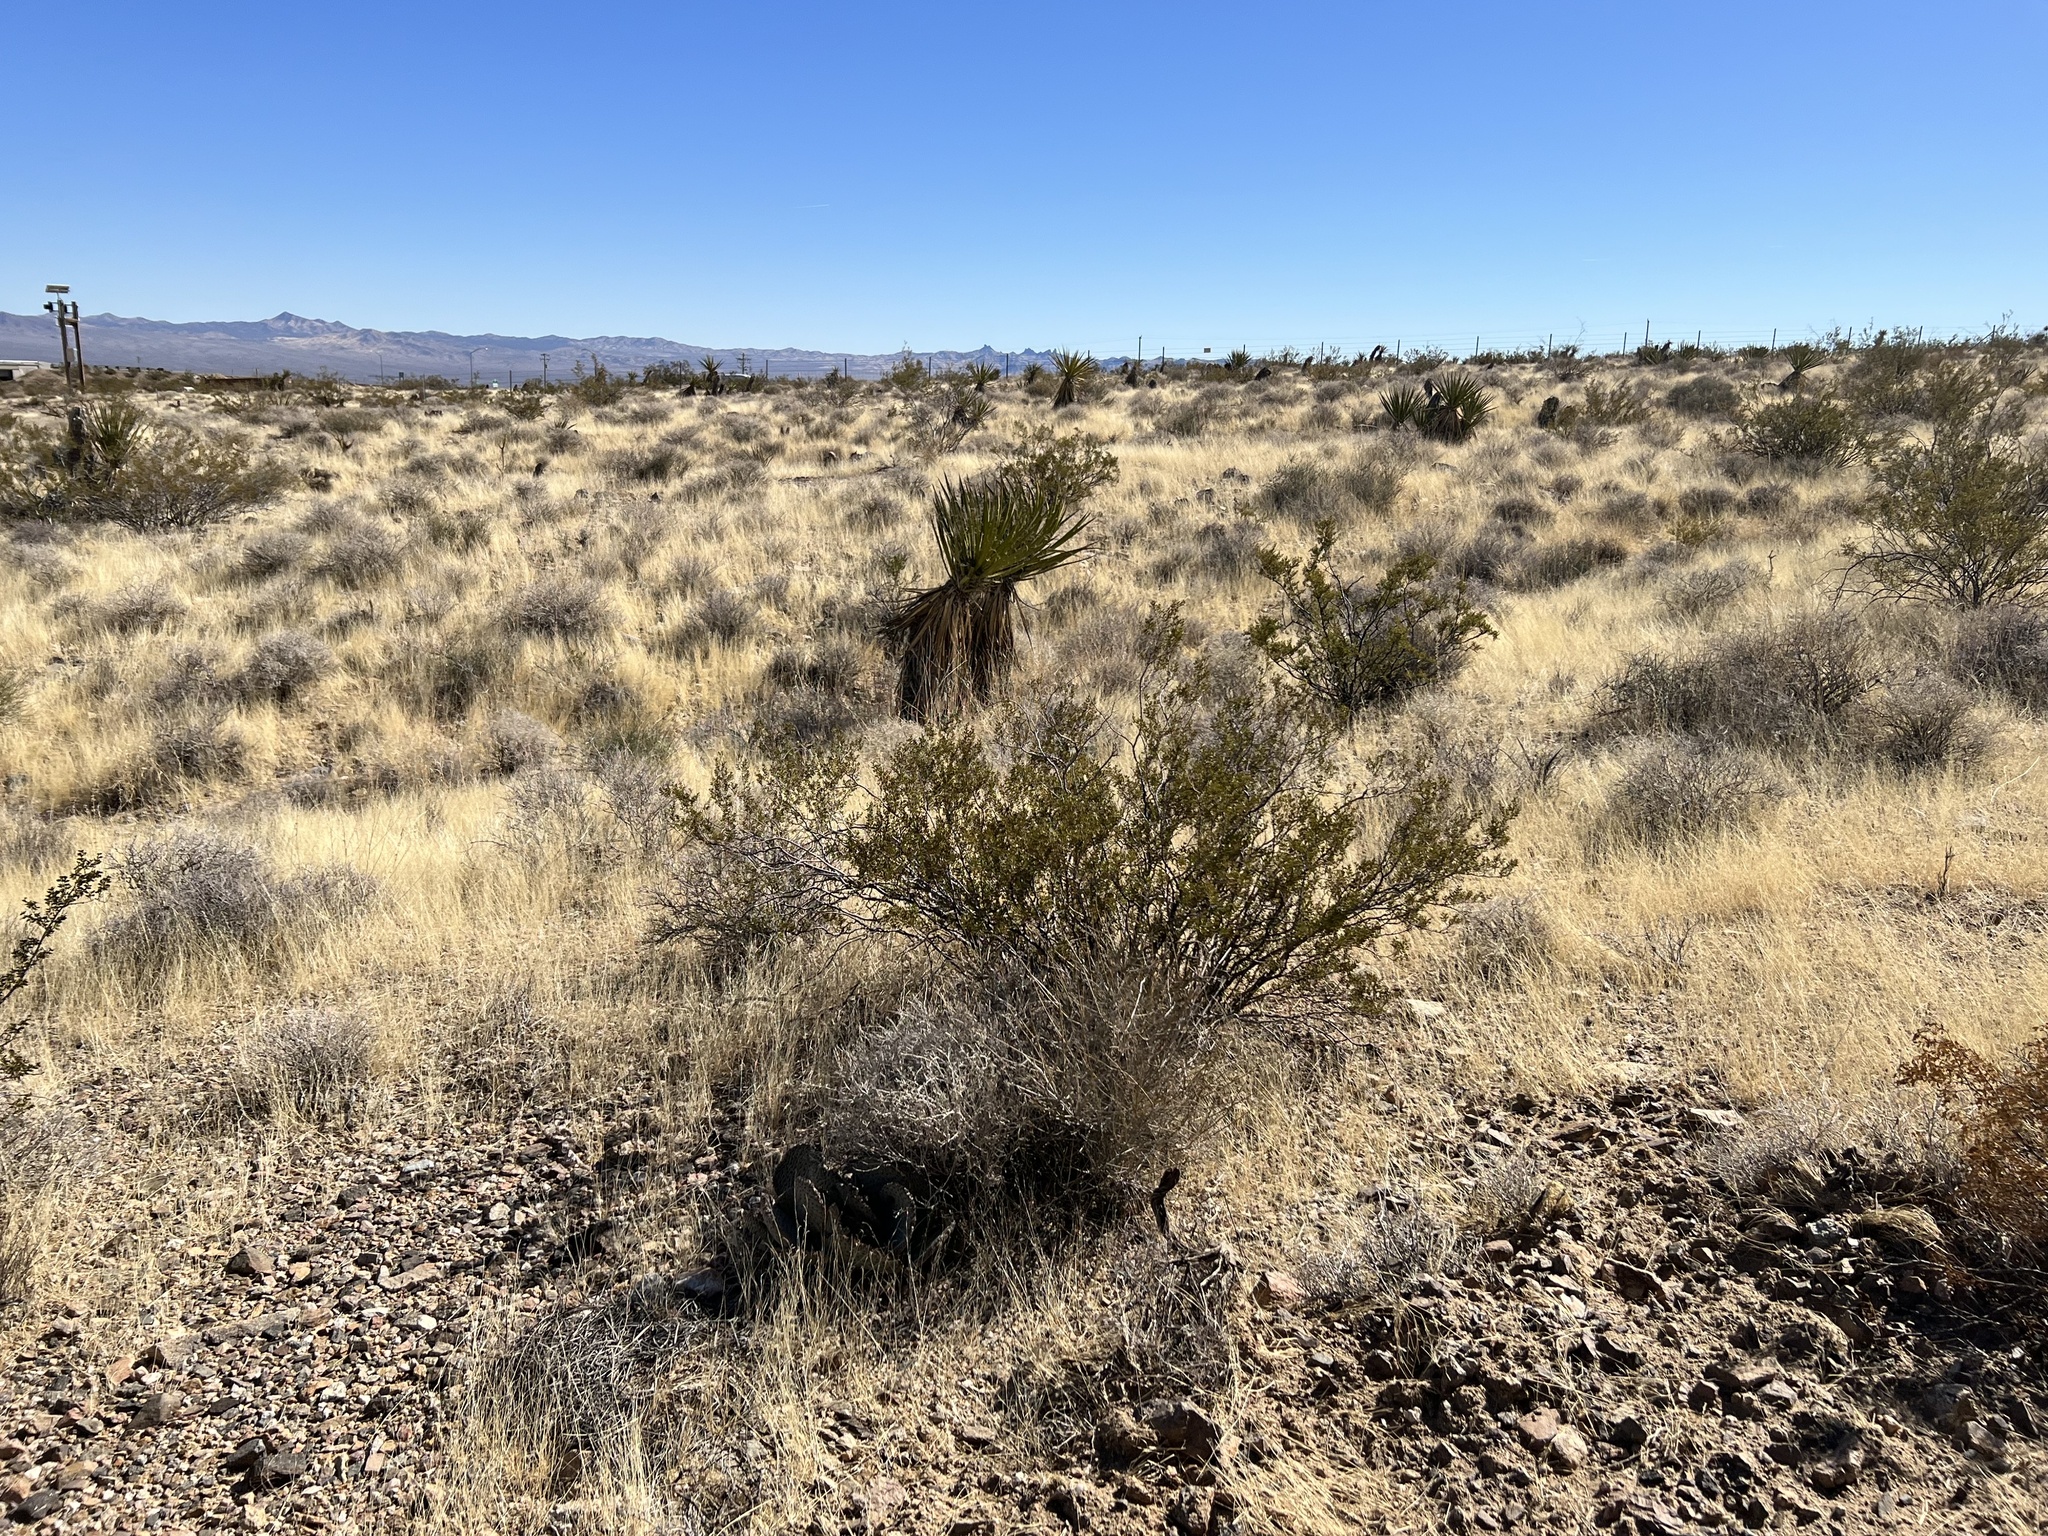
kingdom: Plantae
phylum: Tracheophyta
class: Magnoliopsida
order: Zygophyllales
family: Zygophyllaceae
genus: Larrea
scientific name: Larrea tridentata
